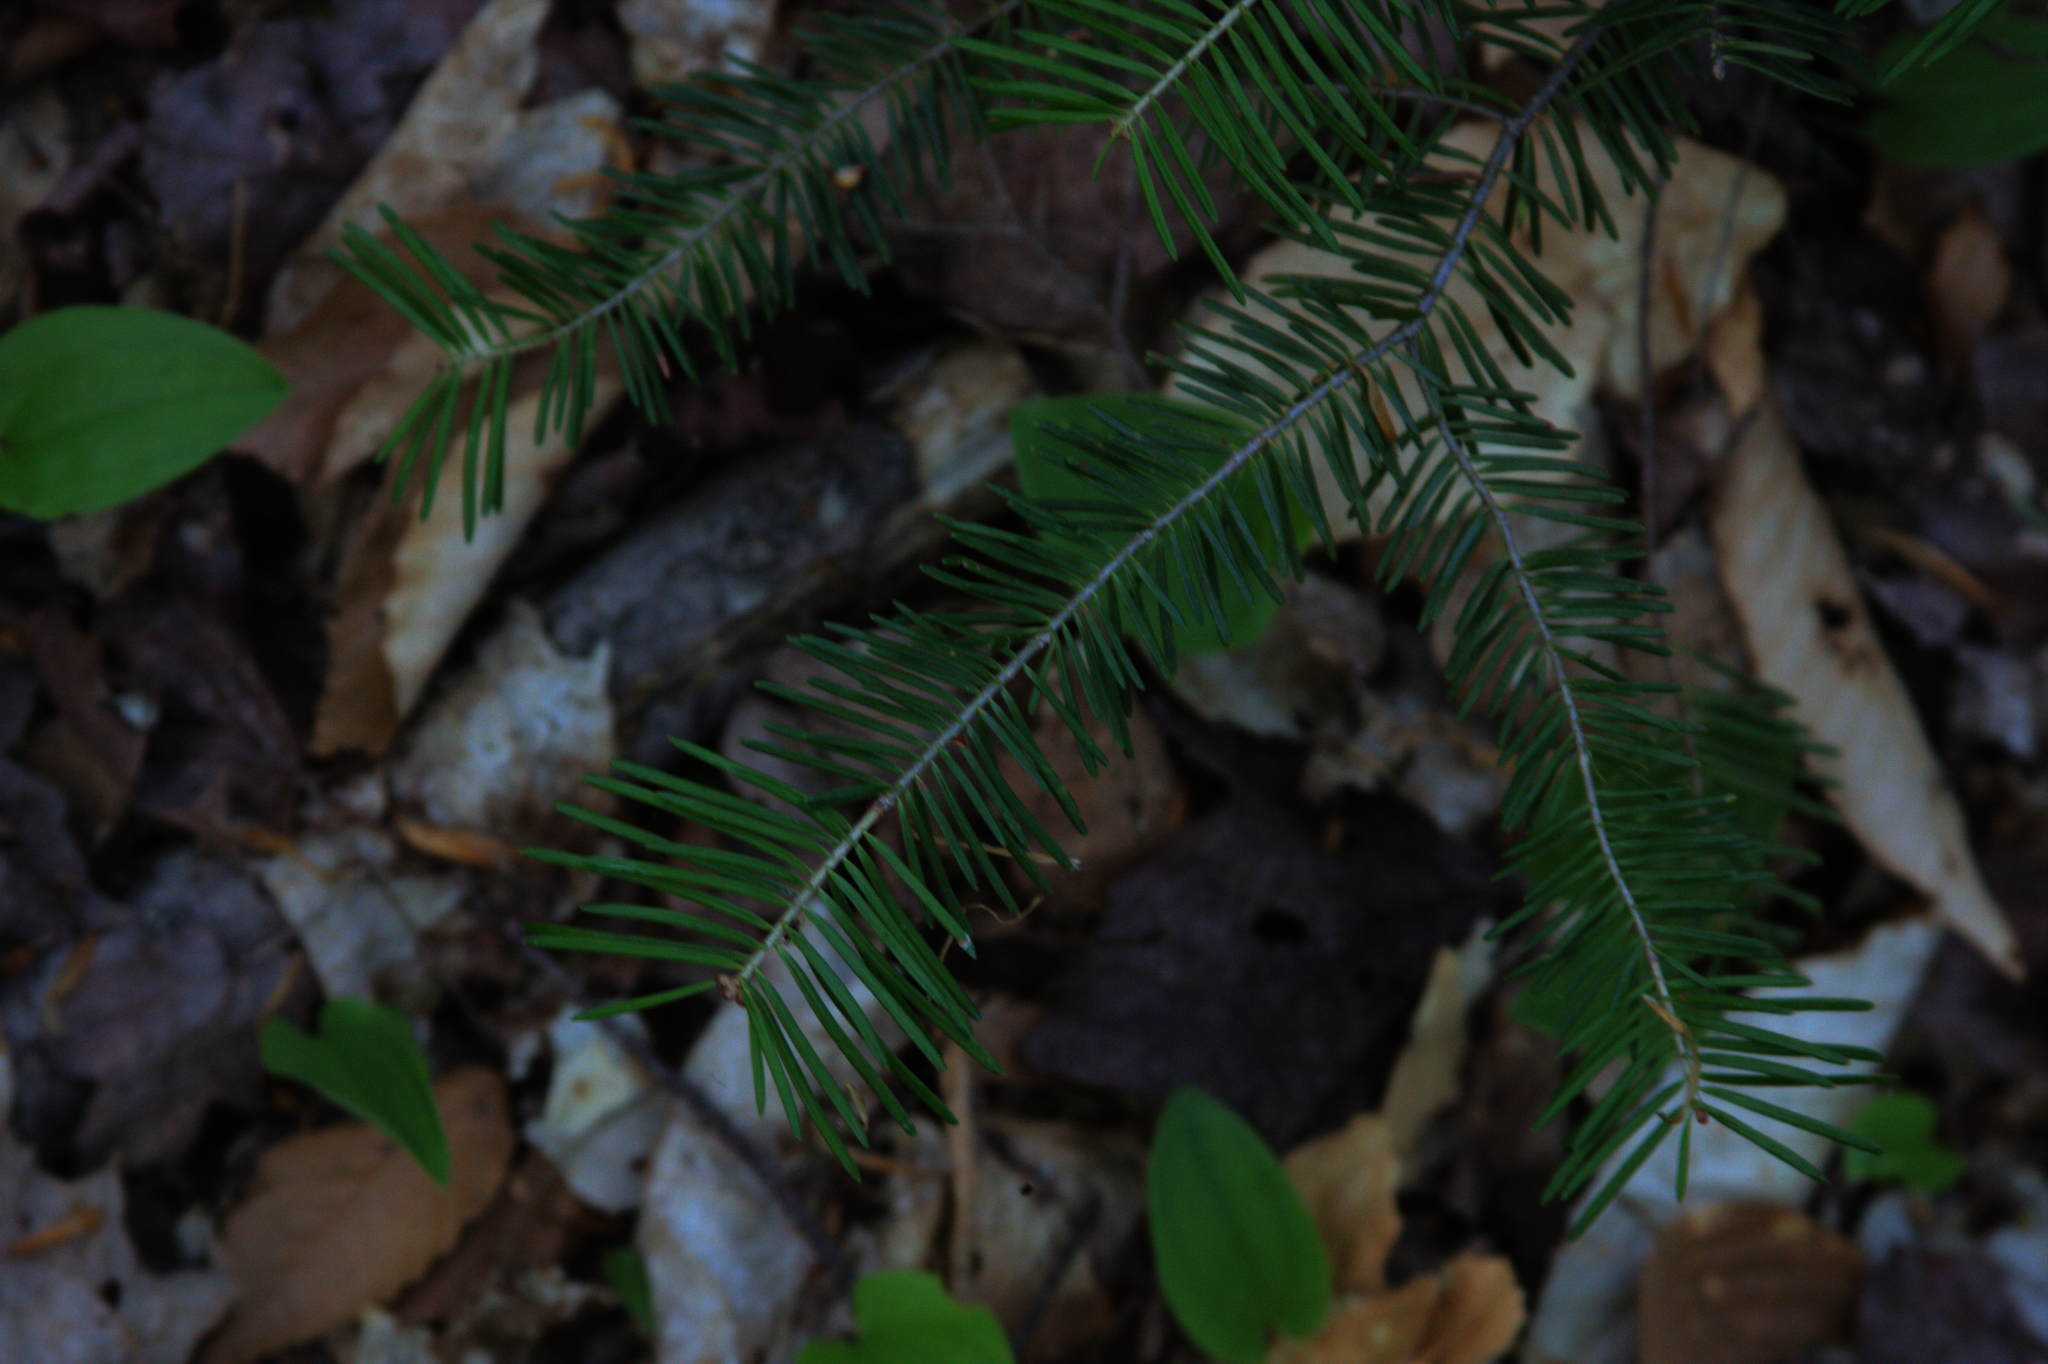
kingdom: Plantae
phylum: Tracheophyta
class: Pinopsida
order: Pinales
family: Pinaceae
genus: Abies
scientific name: Abies balsamea
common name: Balsam fir
